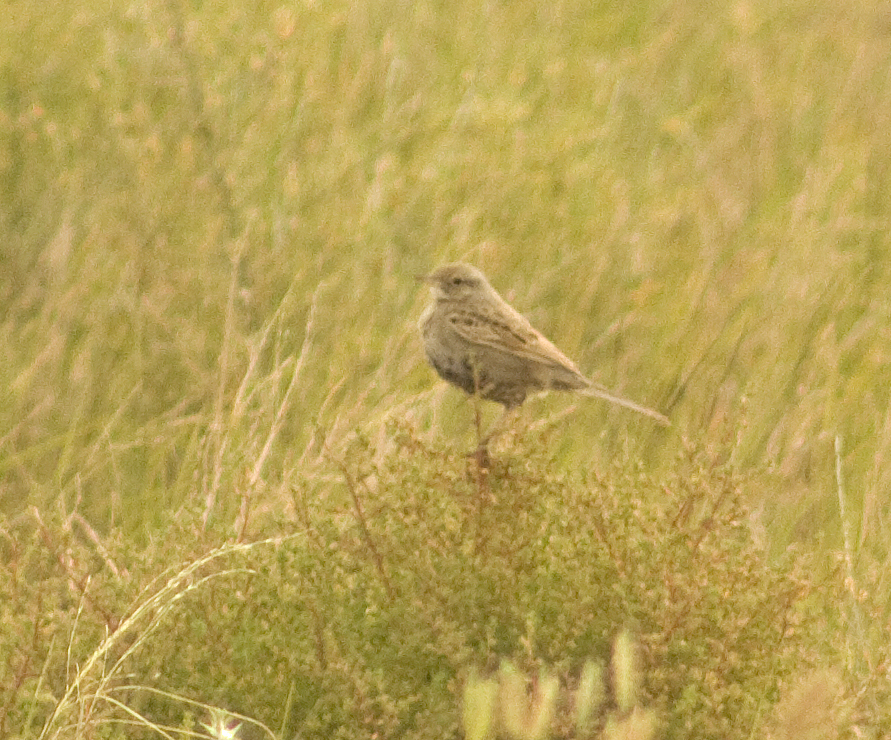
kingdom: Animalia
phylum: Chordata
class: Aves
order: Passeriformes
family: Locustellidae
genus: Megalurus
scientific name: Megalurus cruralis
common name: Brown songlark
